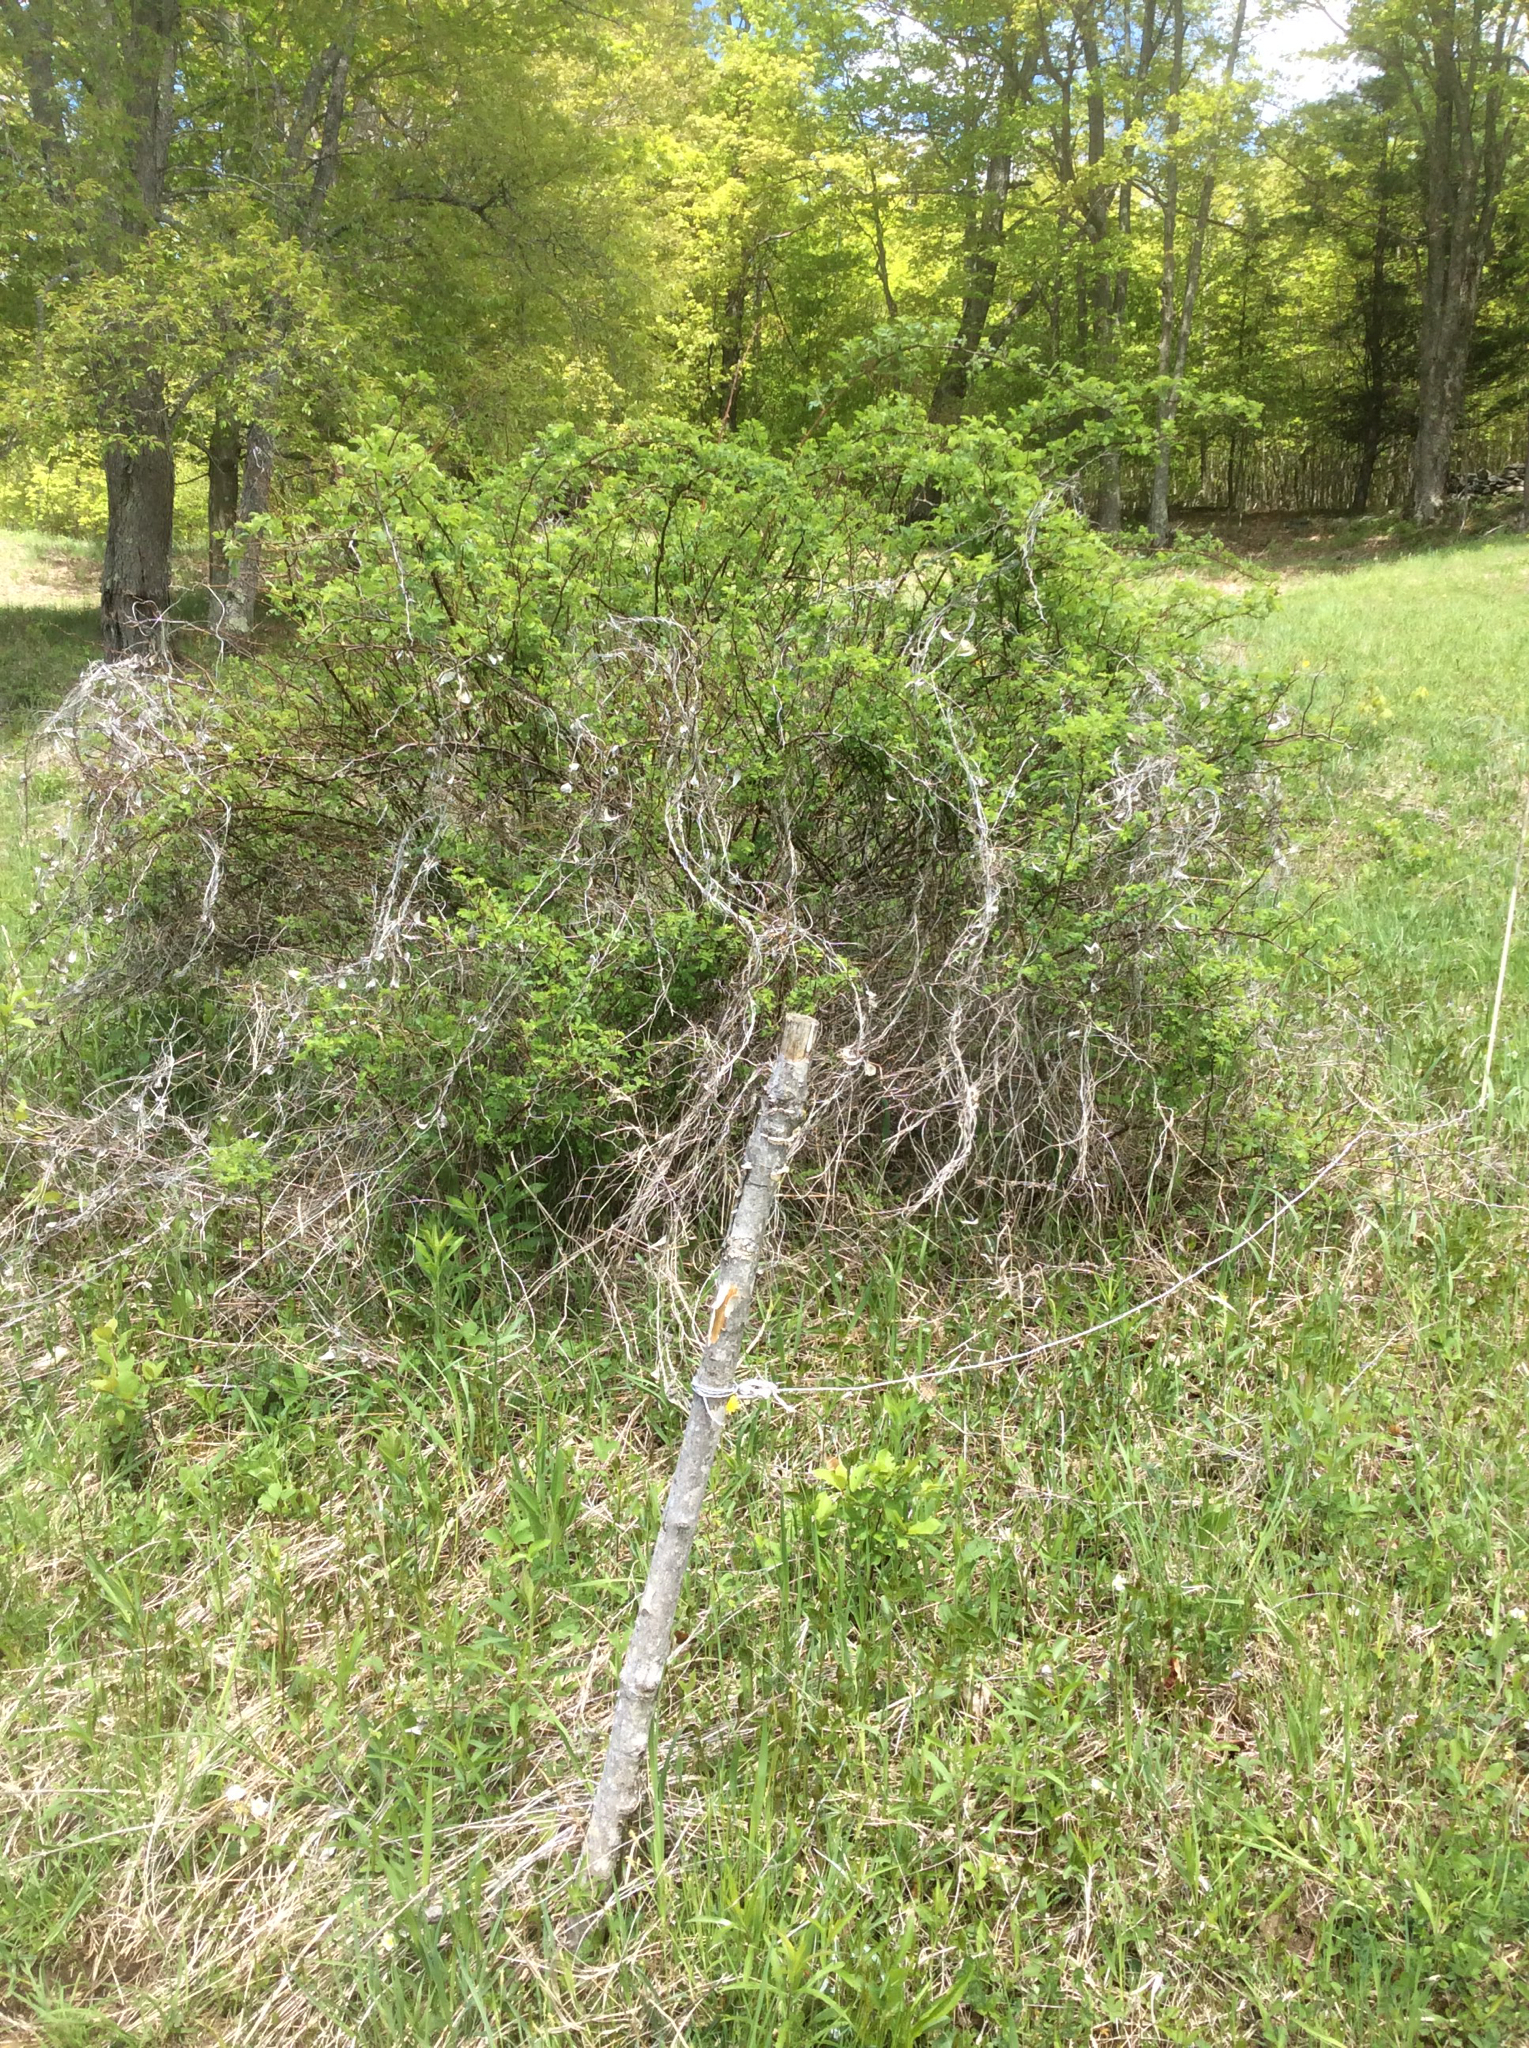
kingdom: Plantae
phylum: Tracheophyta
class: Magnoliopsida
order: Rosales
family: Rosaceae
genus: Rosa
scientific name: Rosa multiflora
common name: Multiflora rose
